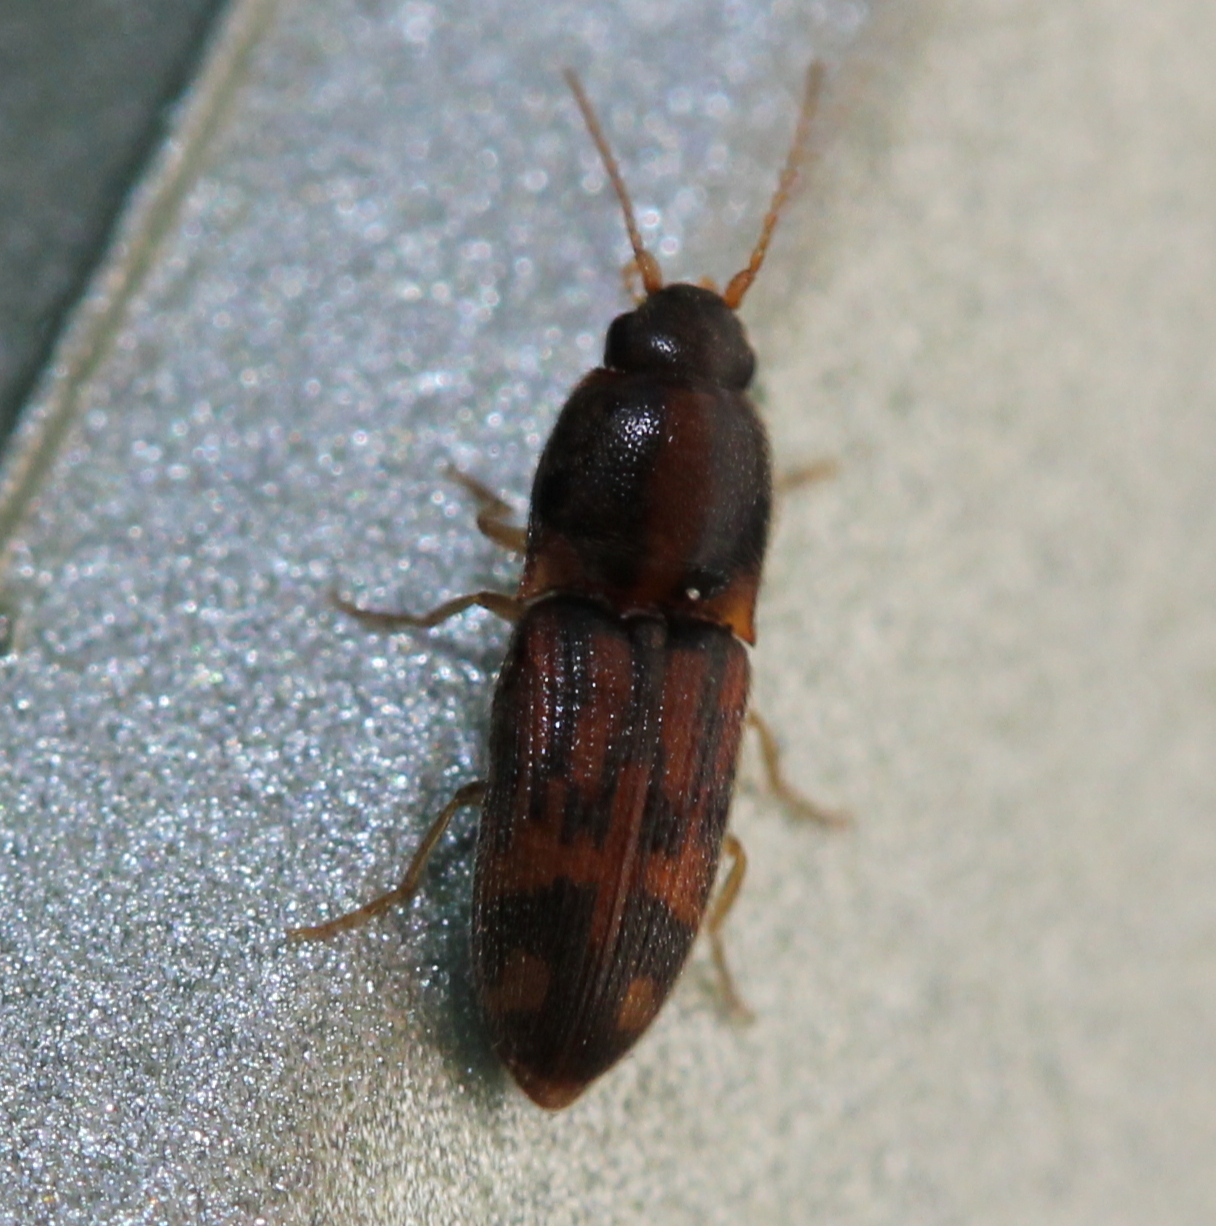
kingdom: Animalia
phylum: Arthropoda
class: Insecta
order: Coleoptera
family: Elateridae
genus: Monocrepidius
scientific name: Monocrepidius bellus
